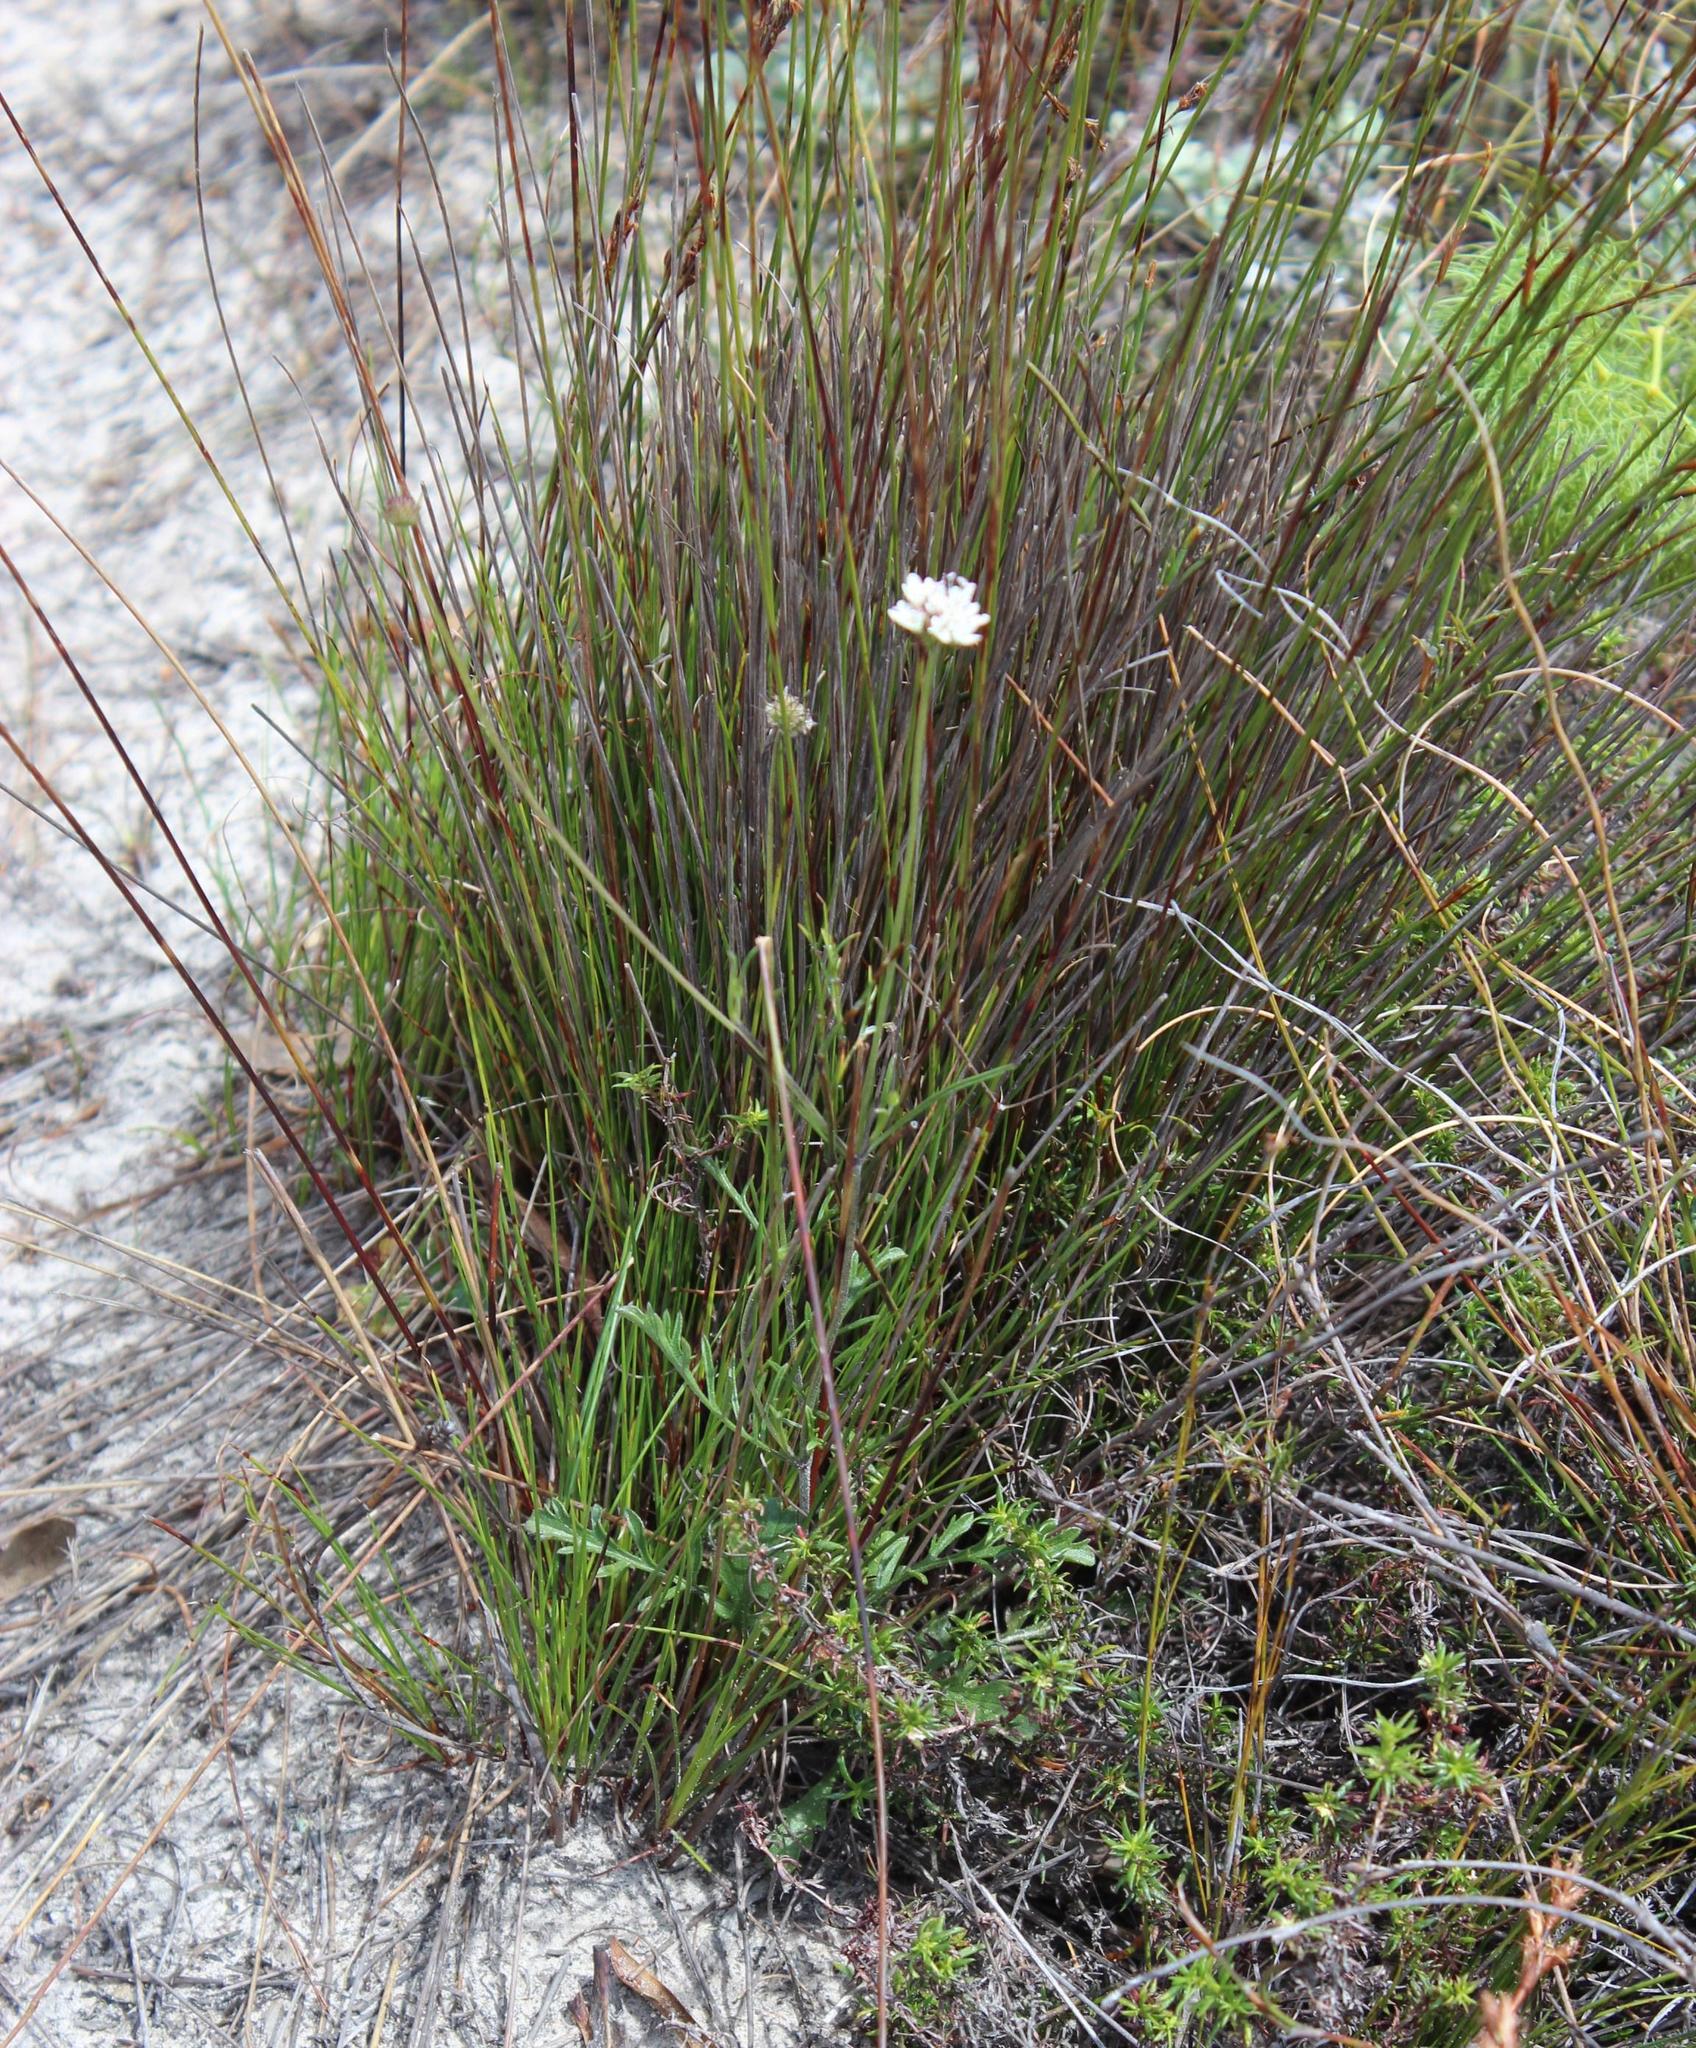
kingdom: Plantae
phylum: Tracheophyta
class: Magnoliopsida
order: Dipsacales
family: Caprifoliaceae
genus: Scabiosa
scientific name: Scabiosa columbaria
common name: Small scabious
